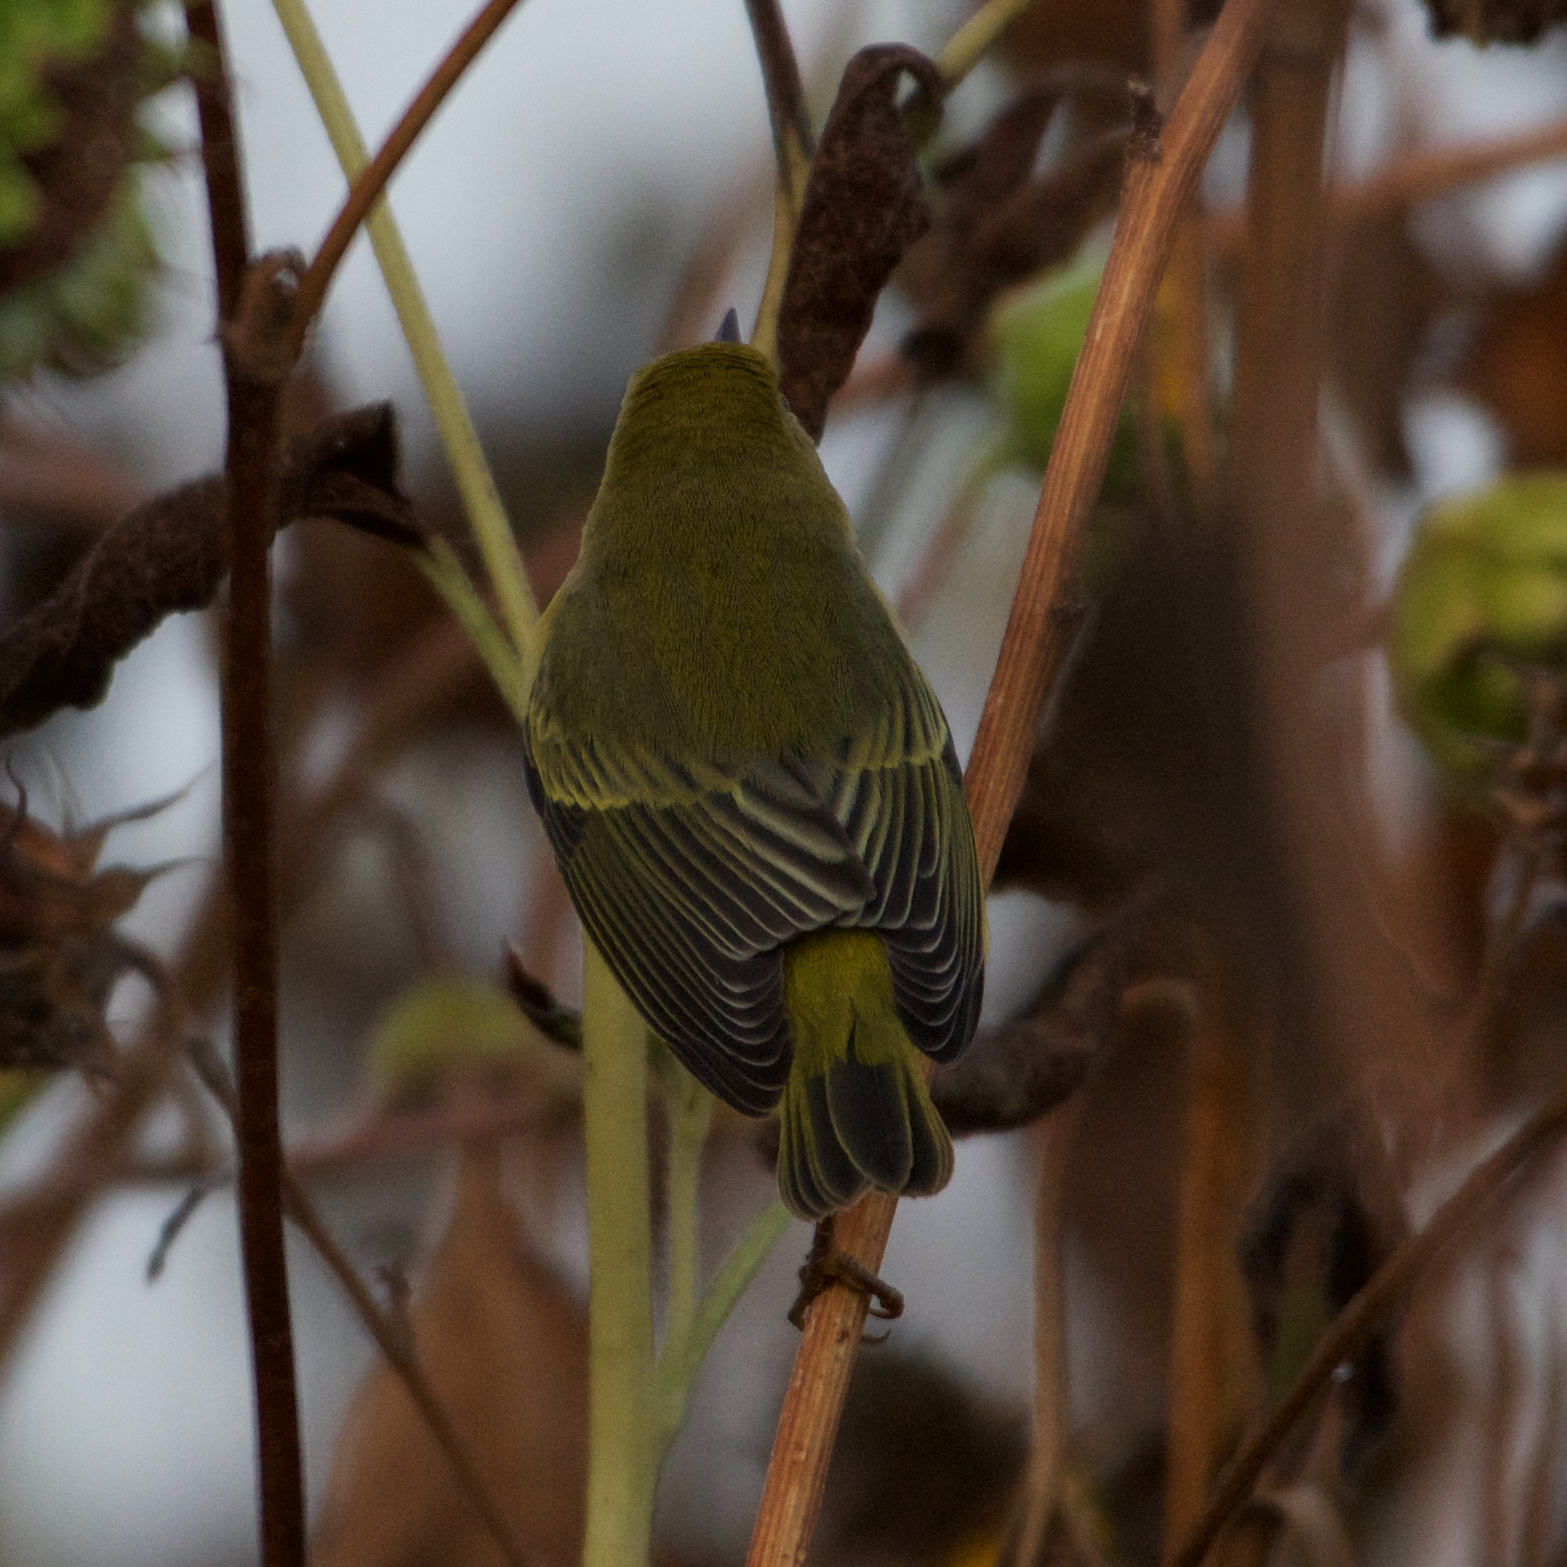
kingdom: Animalia
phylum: Chordata
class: Aves
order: Passeriformes
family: Parulidae
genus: Setophaga
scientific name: Setophaga petechia
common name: Yellow warbler
